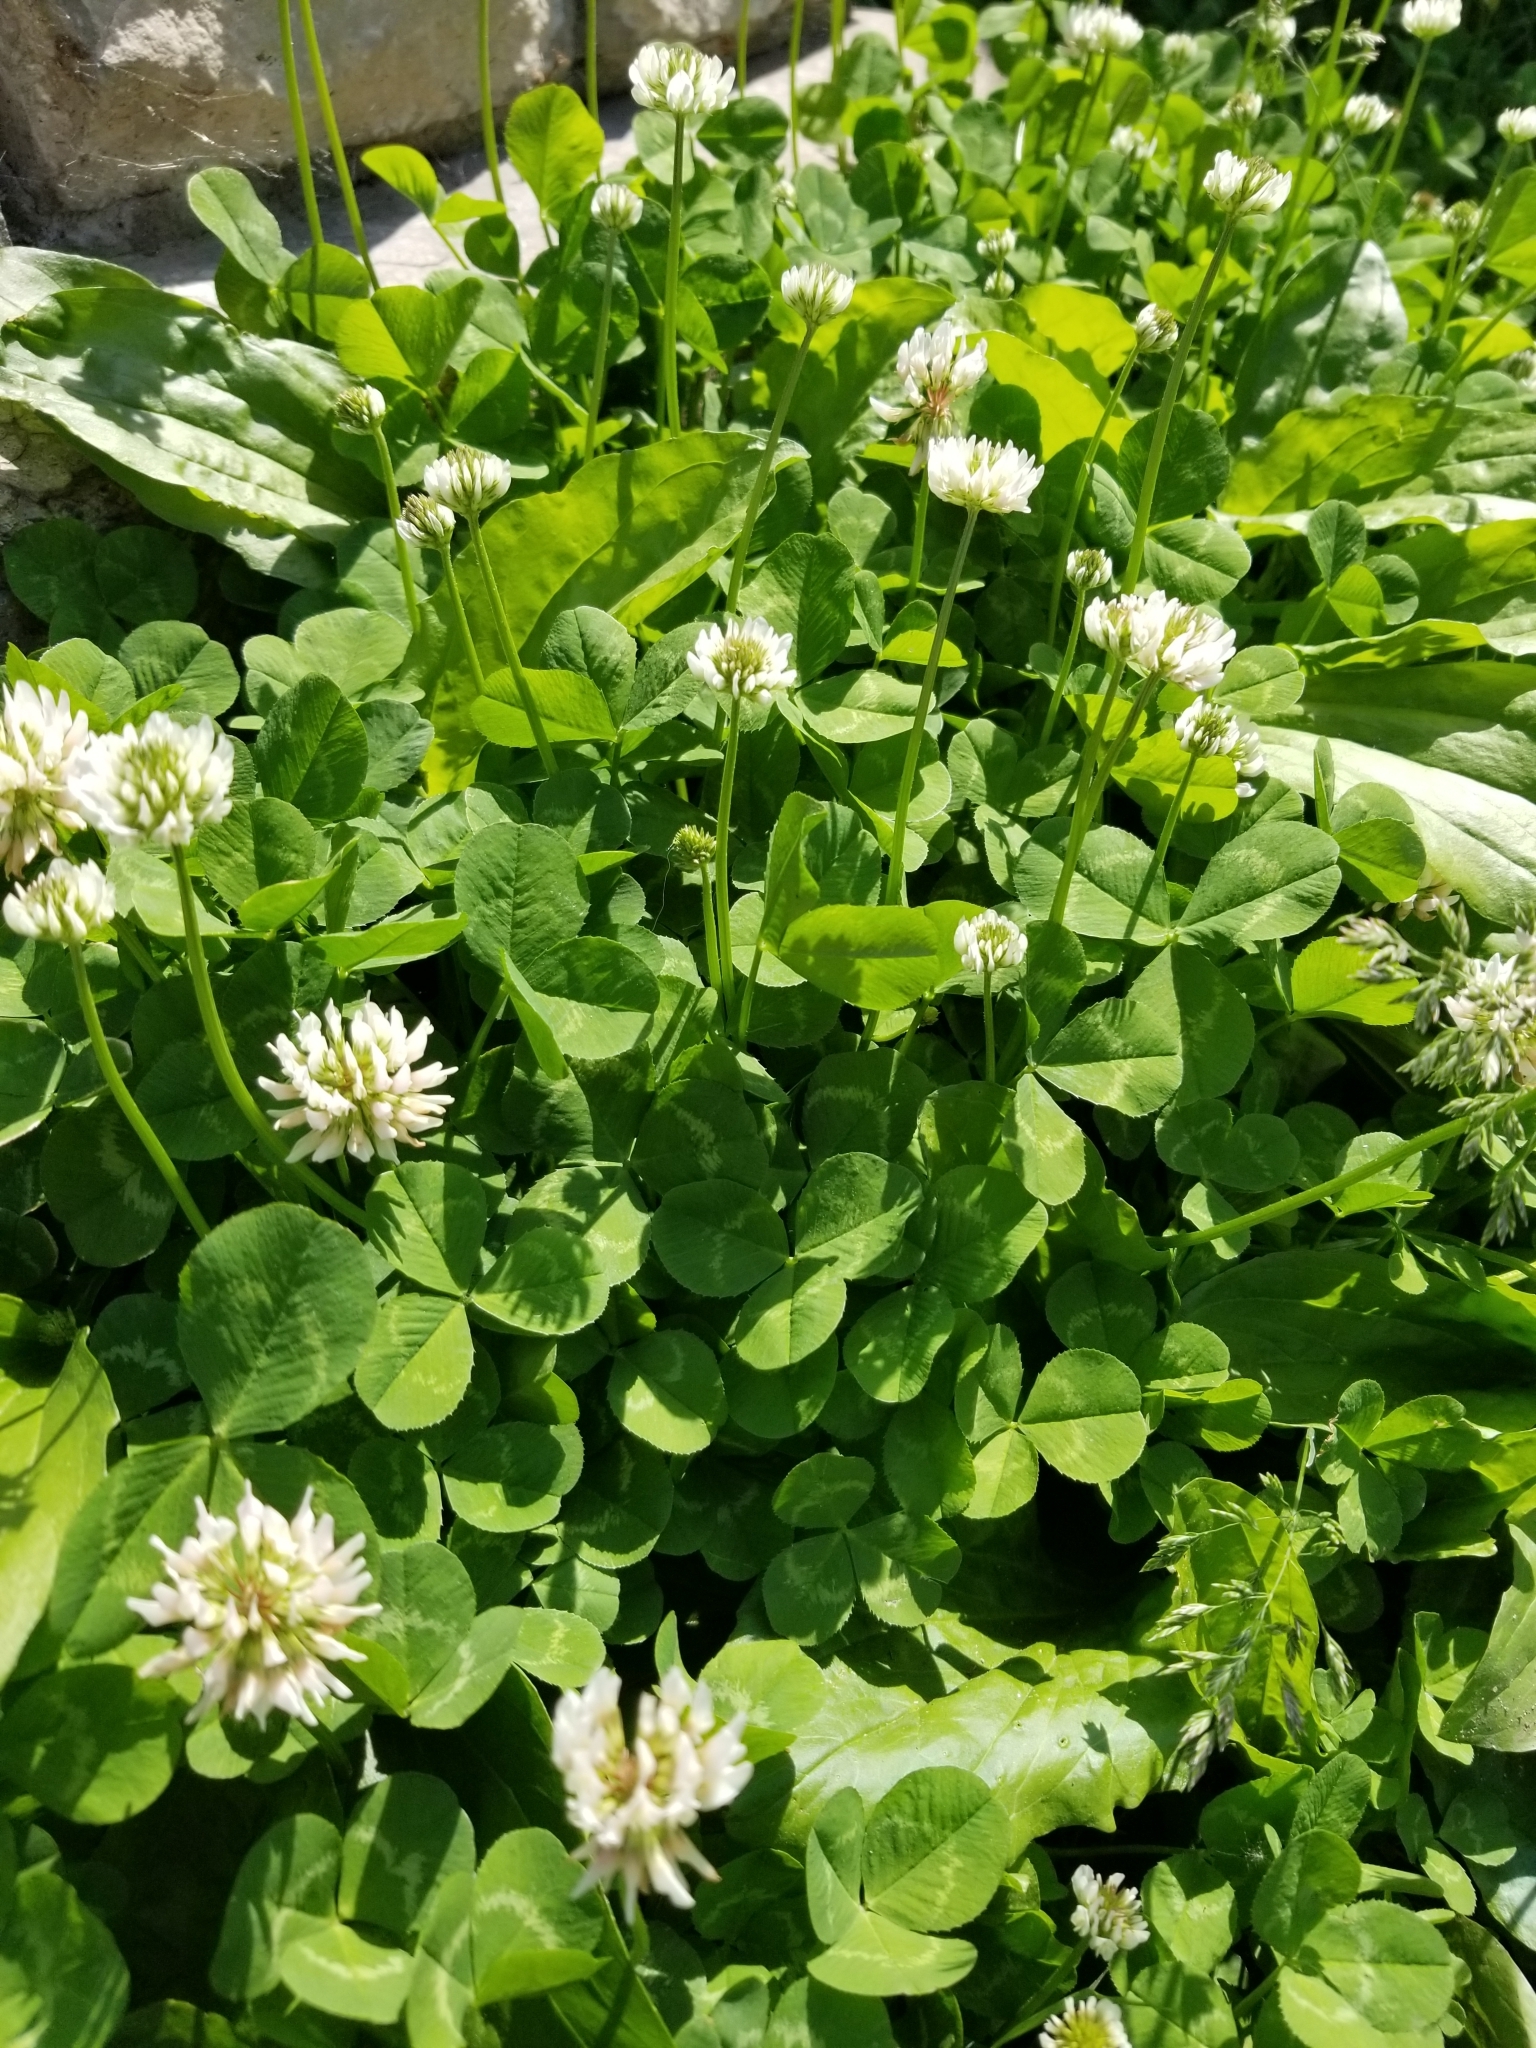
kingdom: Plantae
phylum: Tracheophyta
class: Magnoliopsida
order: Fabales
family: Fabaceae
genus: Trifolium
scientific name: Trifolium repens
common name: White clover
